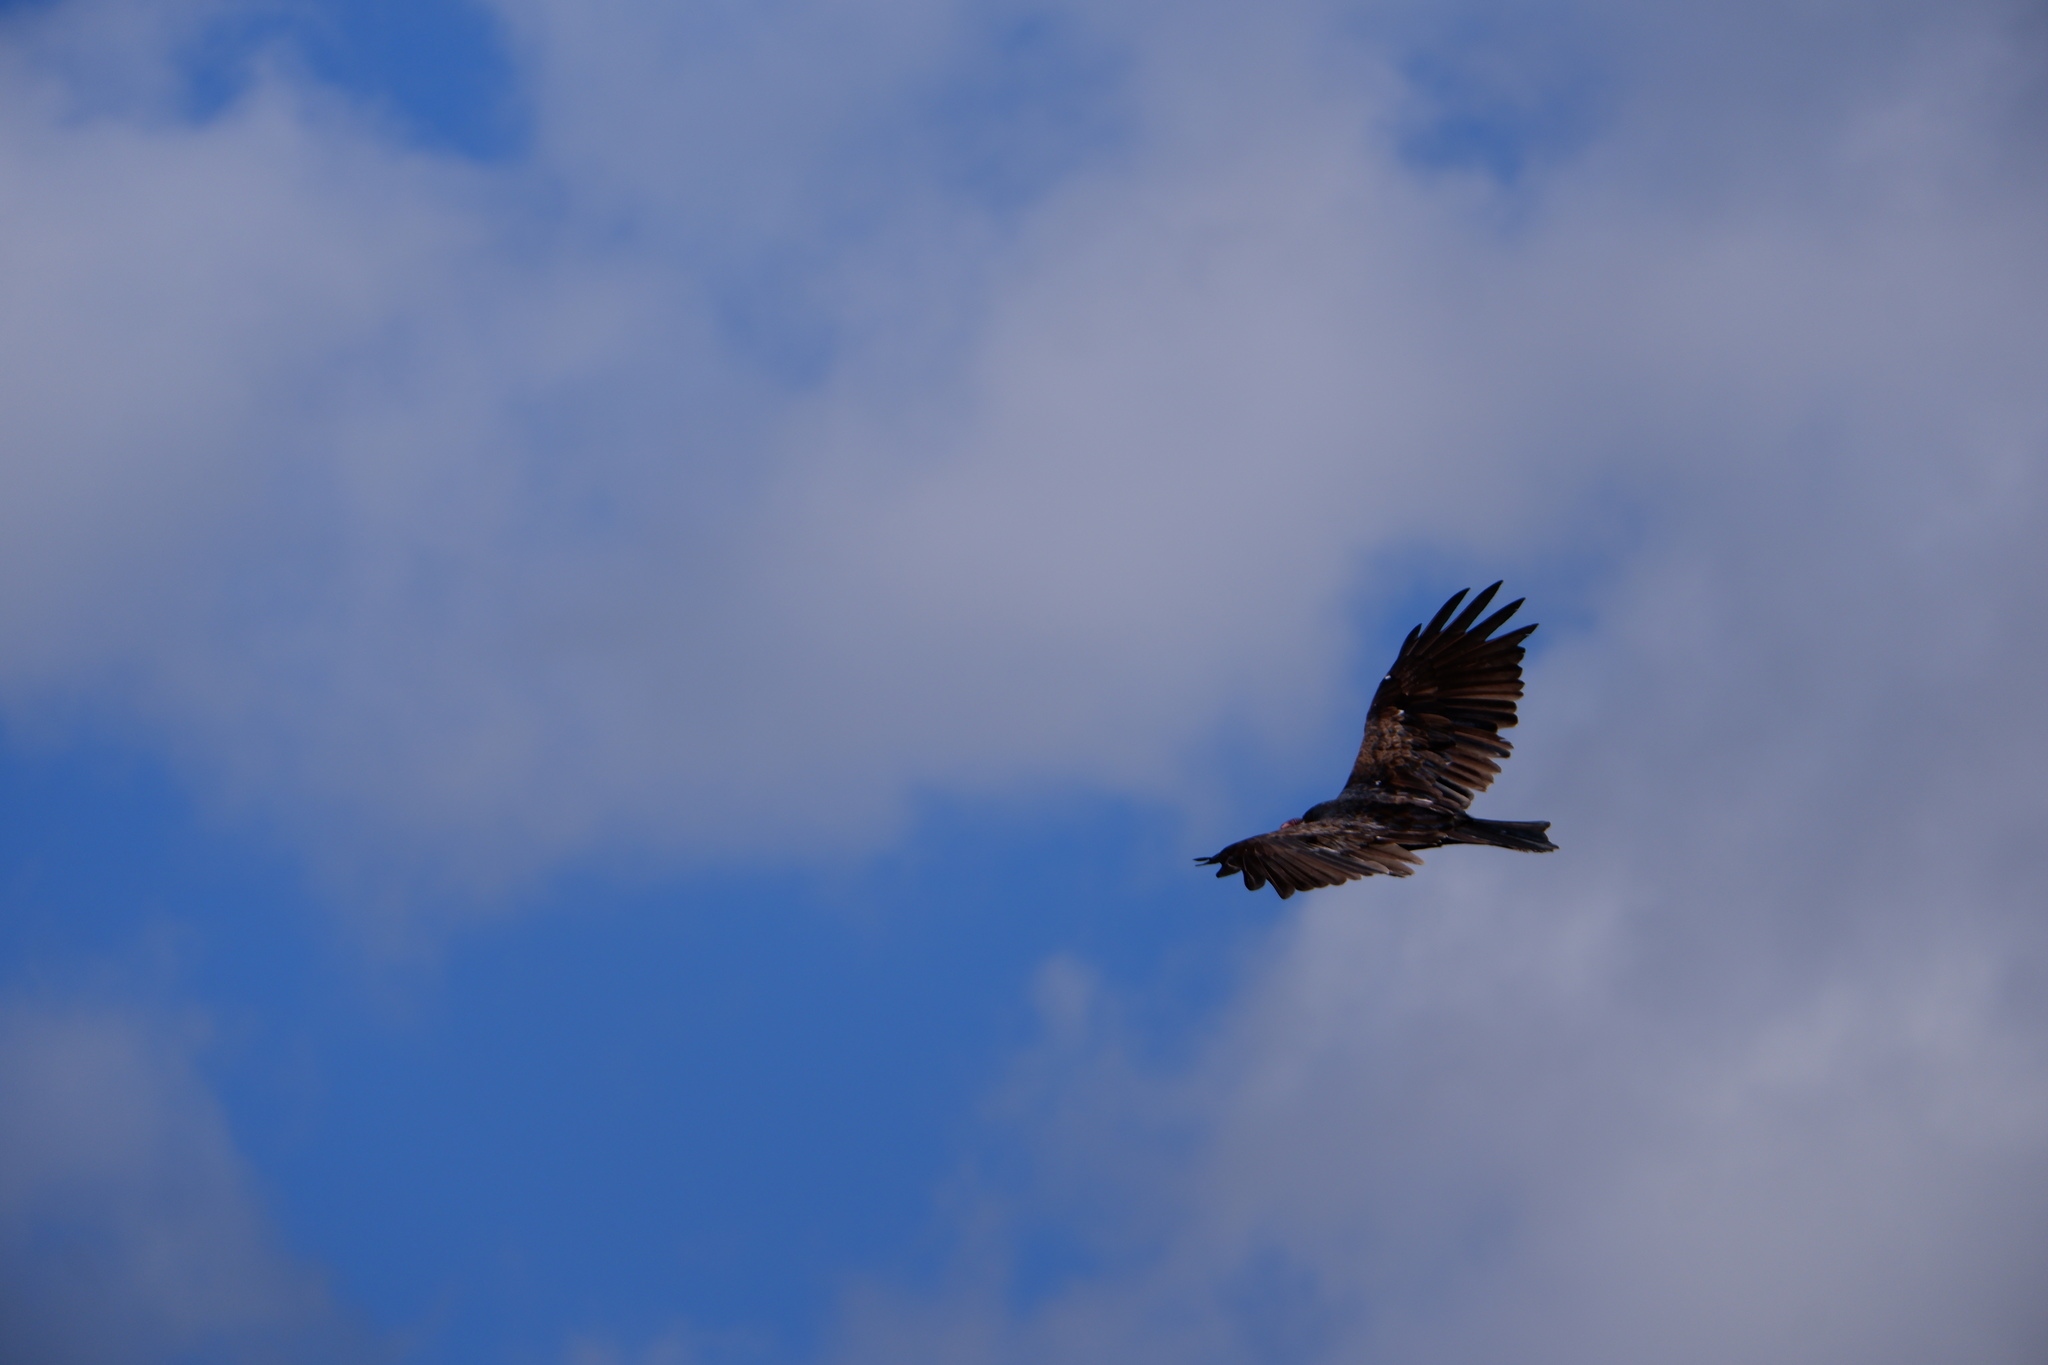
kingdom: Animalia
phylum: Chordata
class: Aves
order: Accipitriformes
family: Cathartidae
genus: Cathartes
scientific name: Cathartes aura
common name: Turkey vulture
